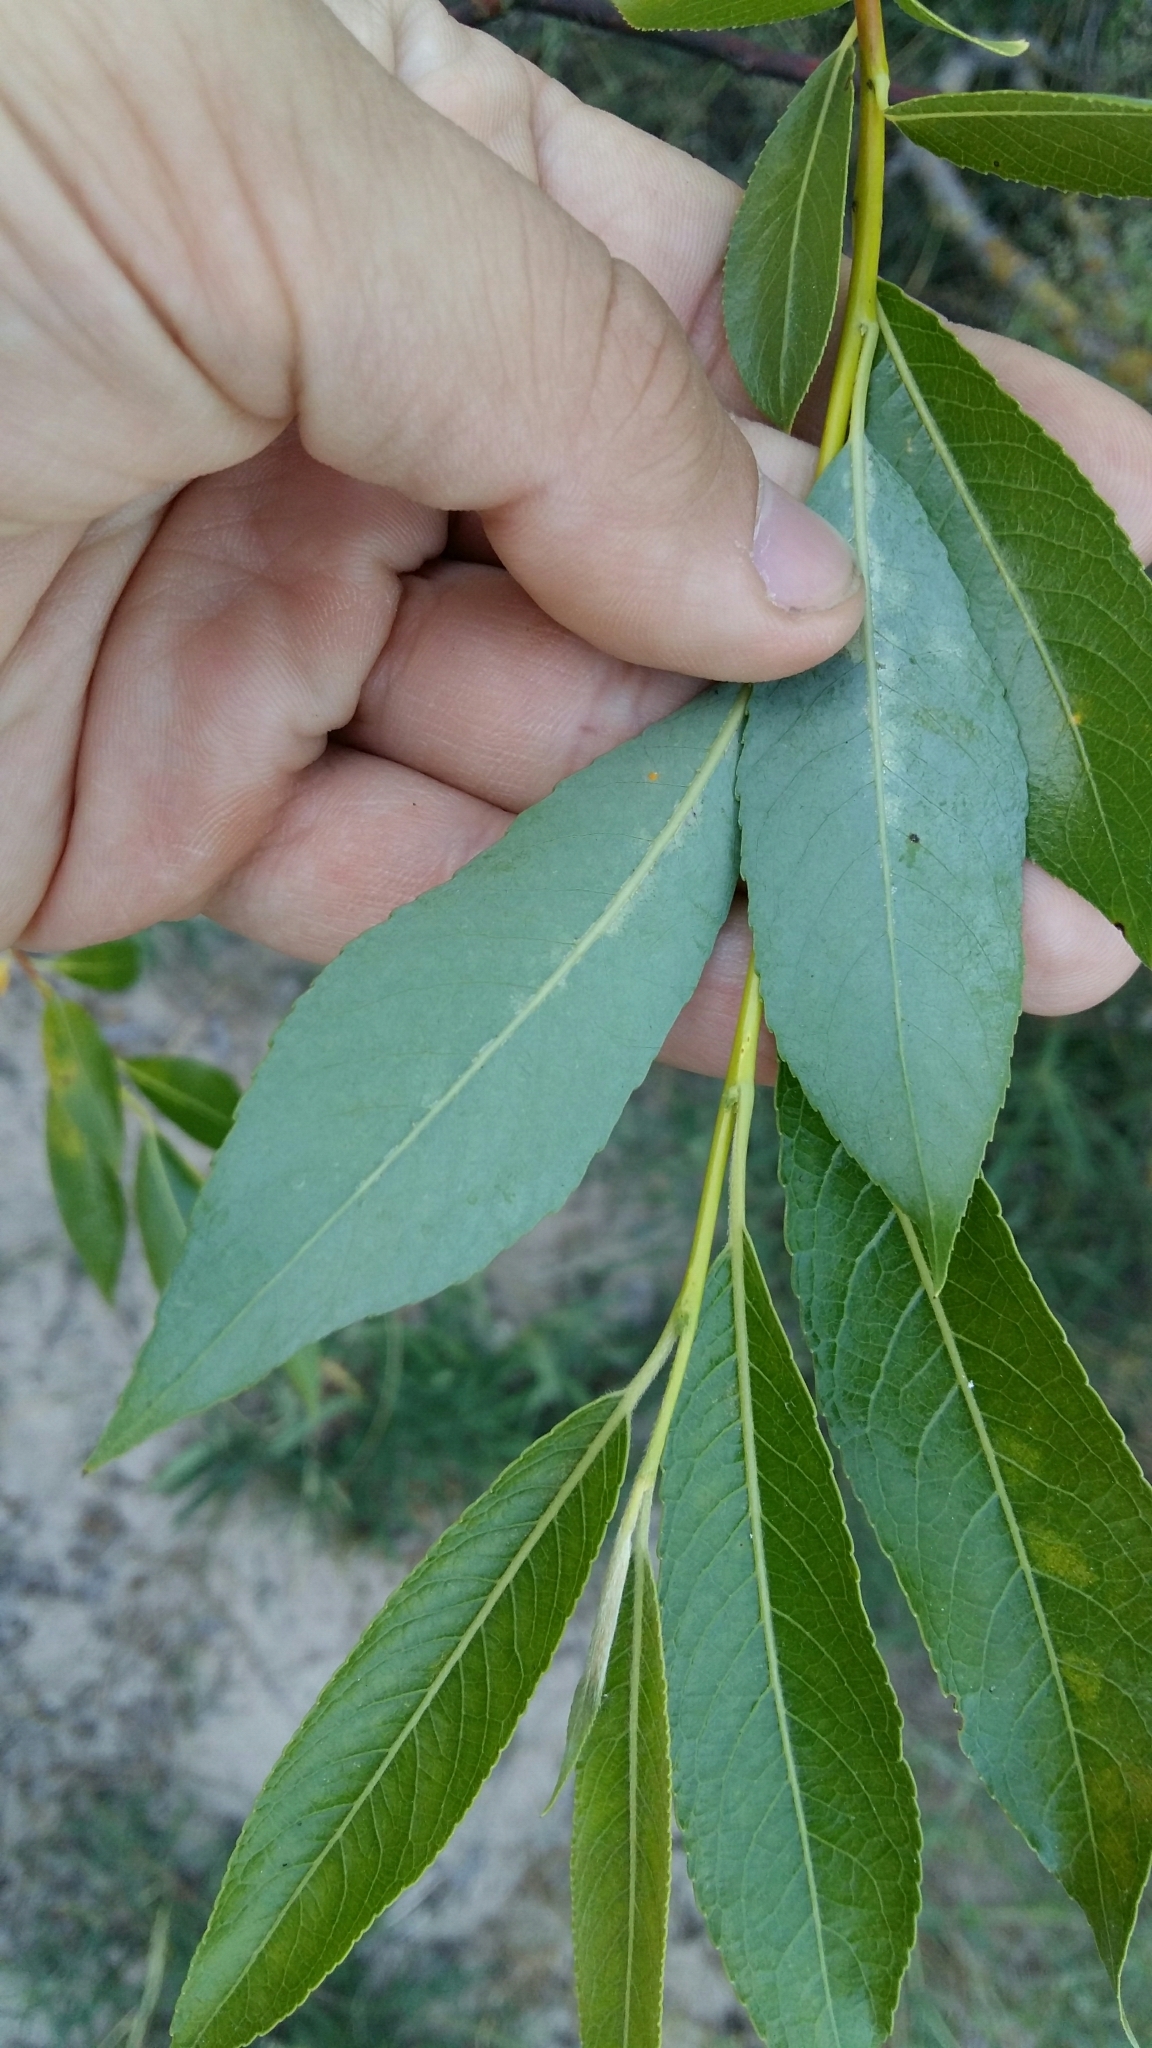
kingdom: Plantae
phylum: Tracheophyta
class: Magnoliopsida
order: Malpighiales
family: Salicaceae
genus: Salix
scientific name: Salix
